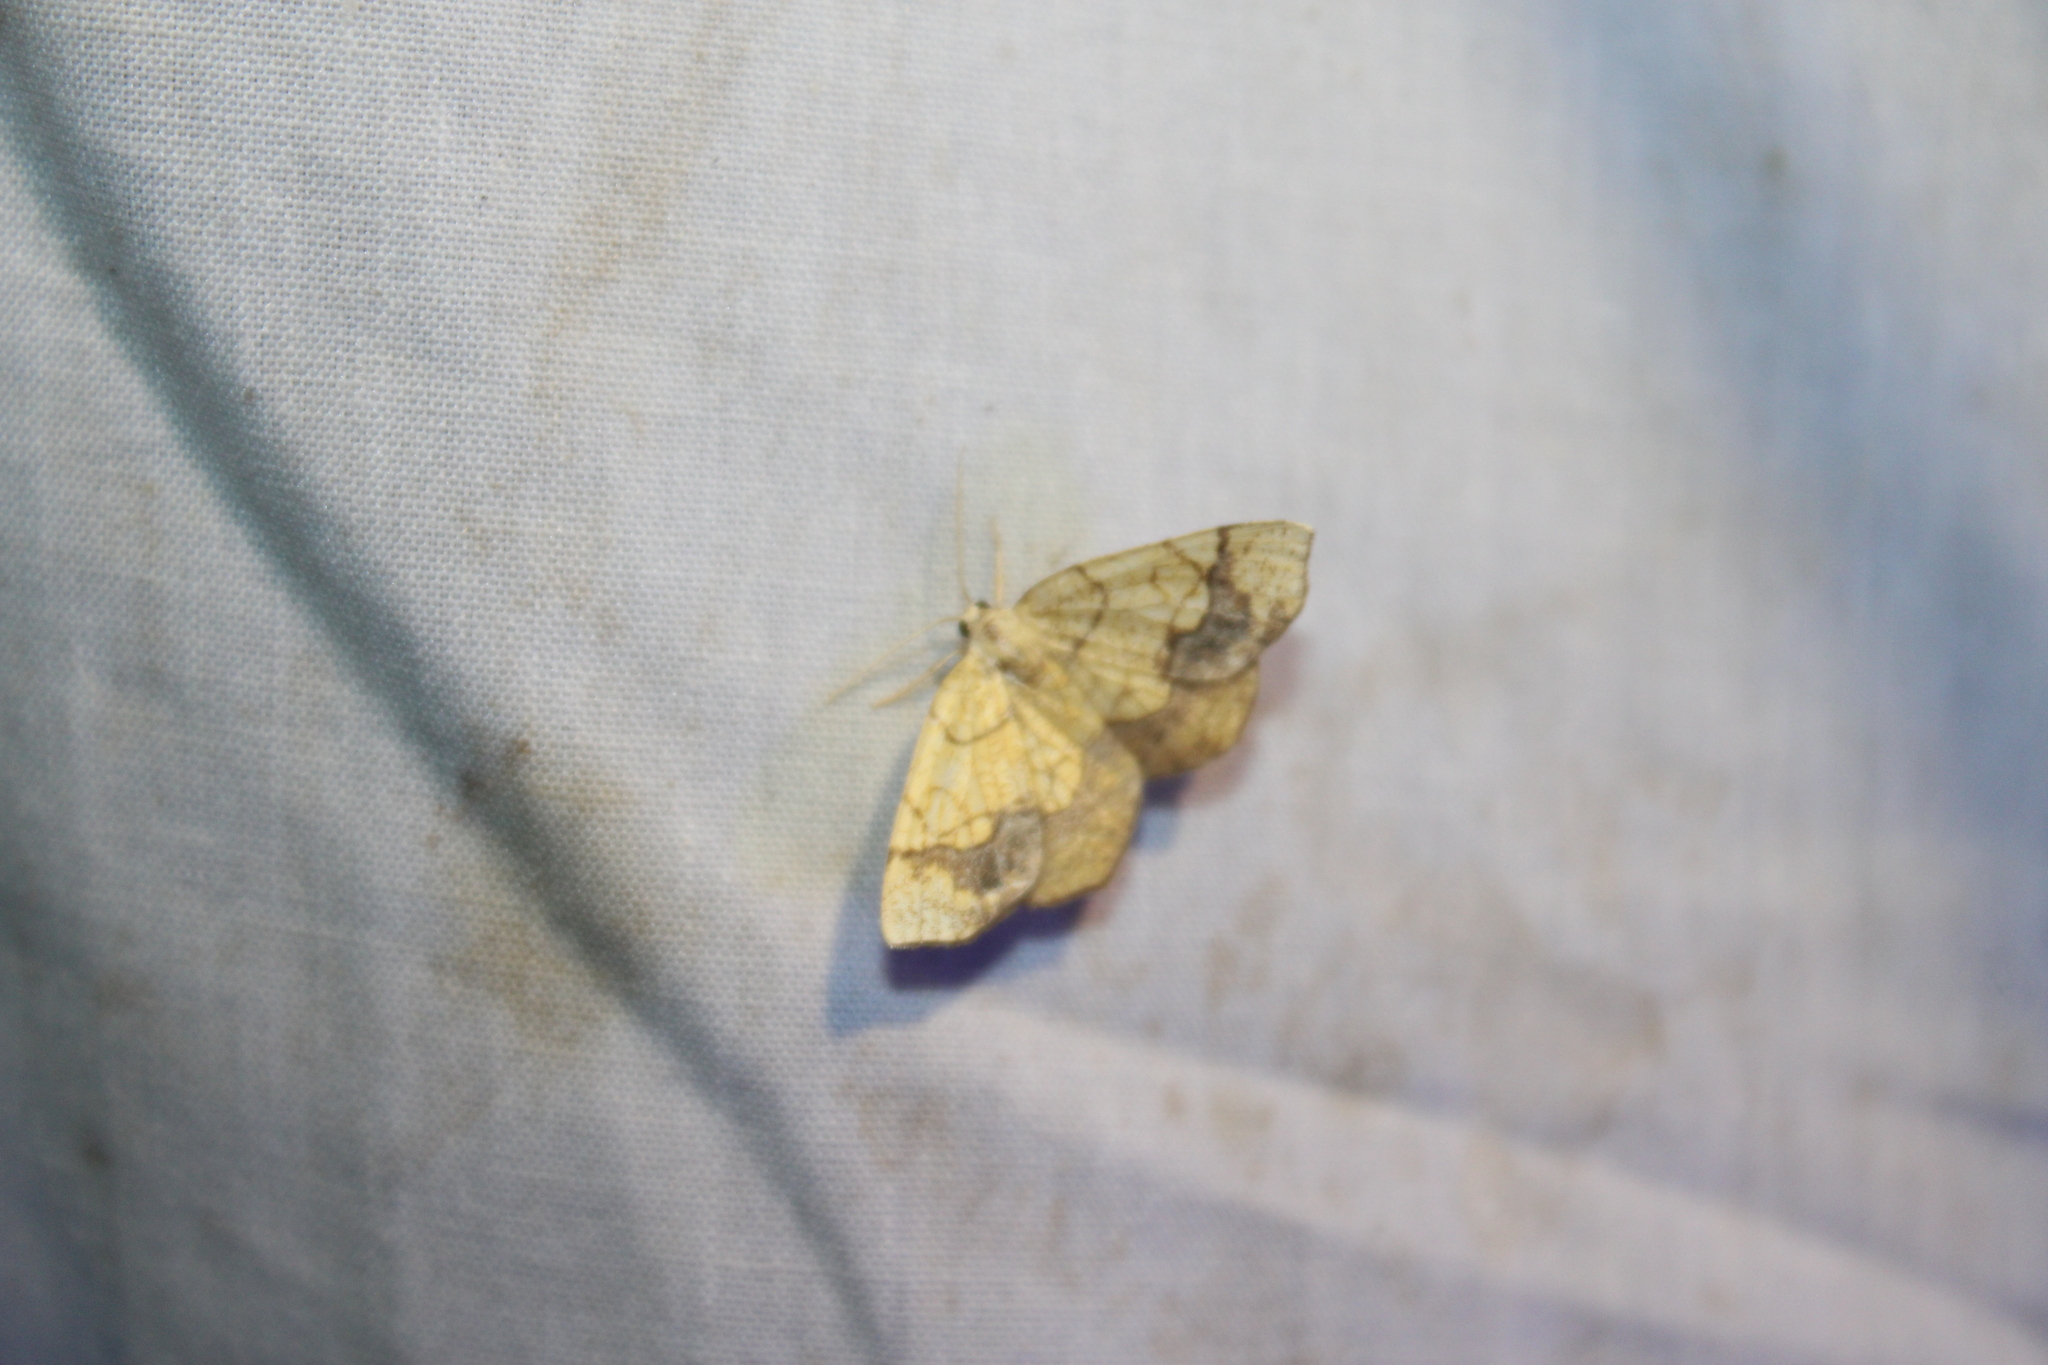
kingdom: Animalia
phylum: Arthropoda
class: Insecta
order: Lepidoptera
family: Geometridae
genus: Nematocampa
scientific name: Nematocampa resistaria
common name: Horned spanworm moth
